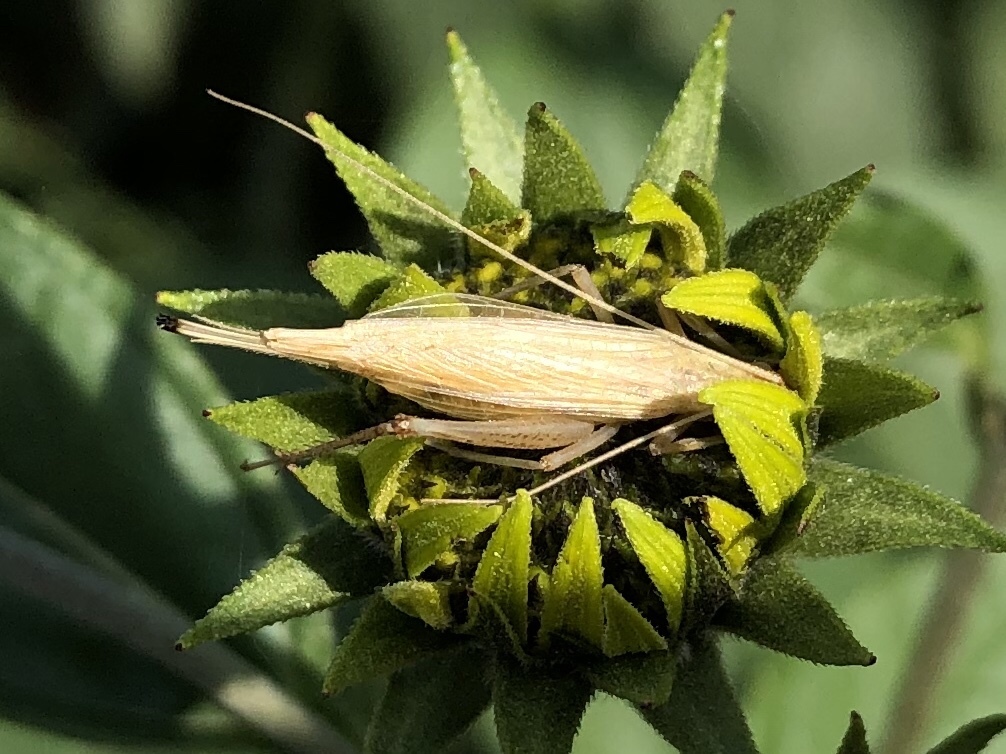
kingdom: Animalia
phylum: Arthropoda
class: Insecta
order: Orthoptera
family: Gryllidae
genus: Oecanthus
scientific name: Oecanthus pellucens
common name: Tree-cricket
